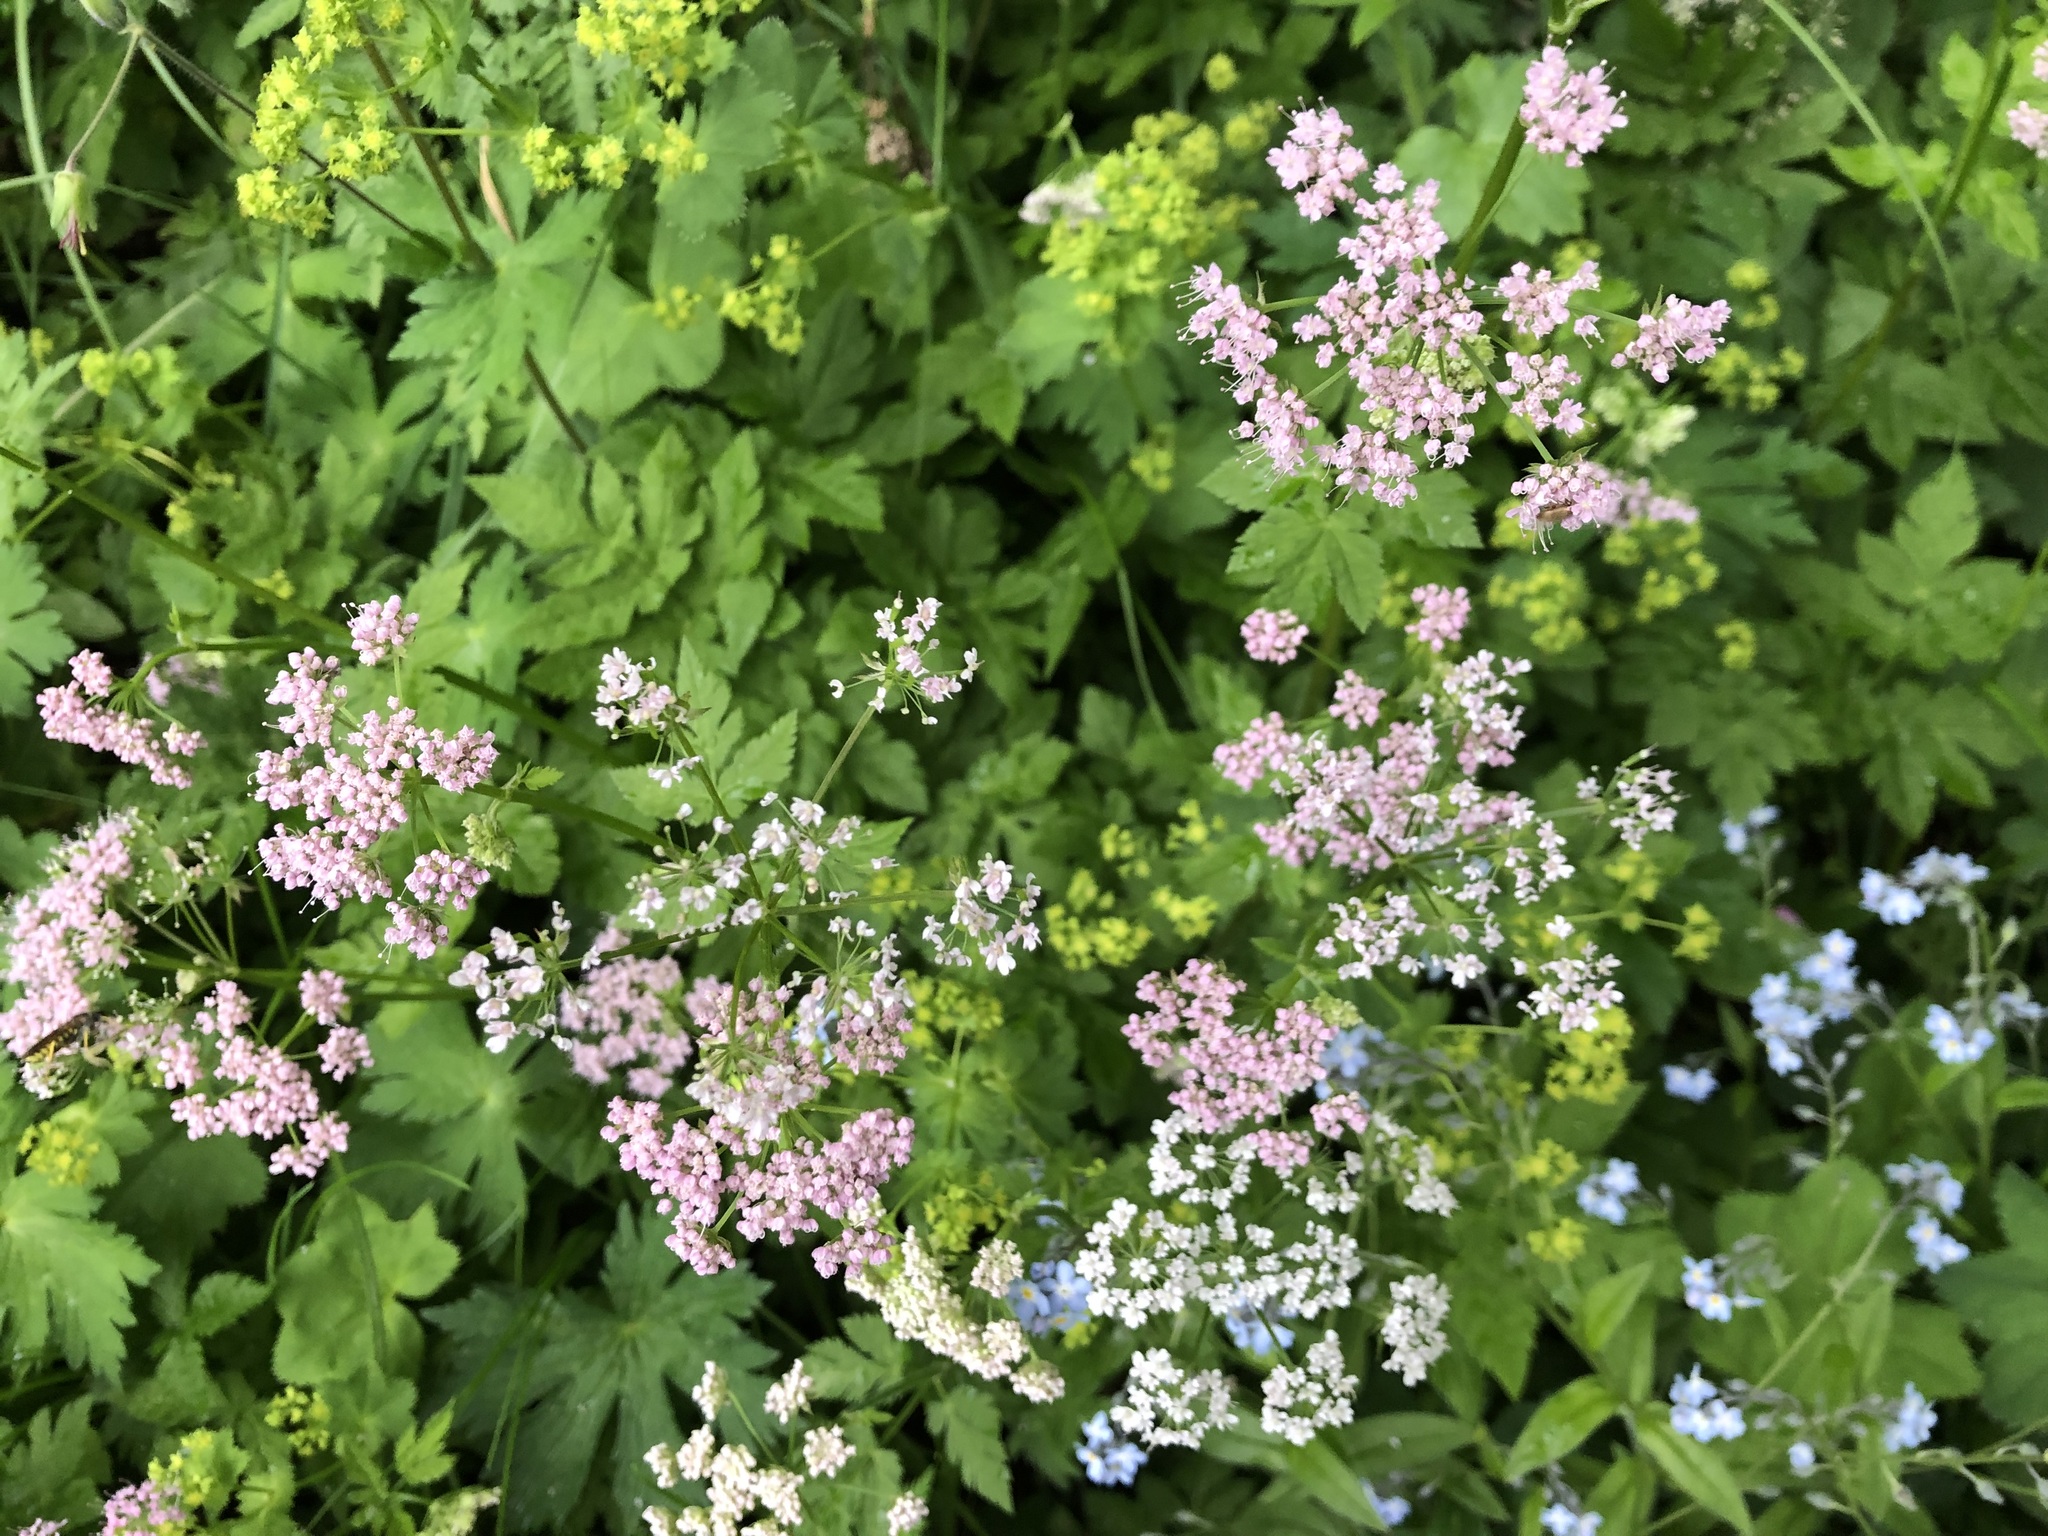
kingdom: Plantae
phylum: Tracheophyta
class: Magnoliopsida
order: Apiales
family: Apiaceae
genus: Pimpinella
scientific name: Pimpinella major
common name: Greater burnet-saxifrage
